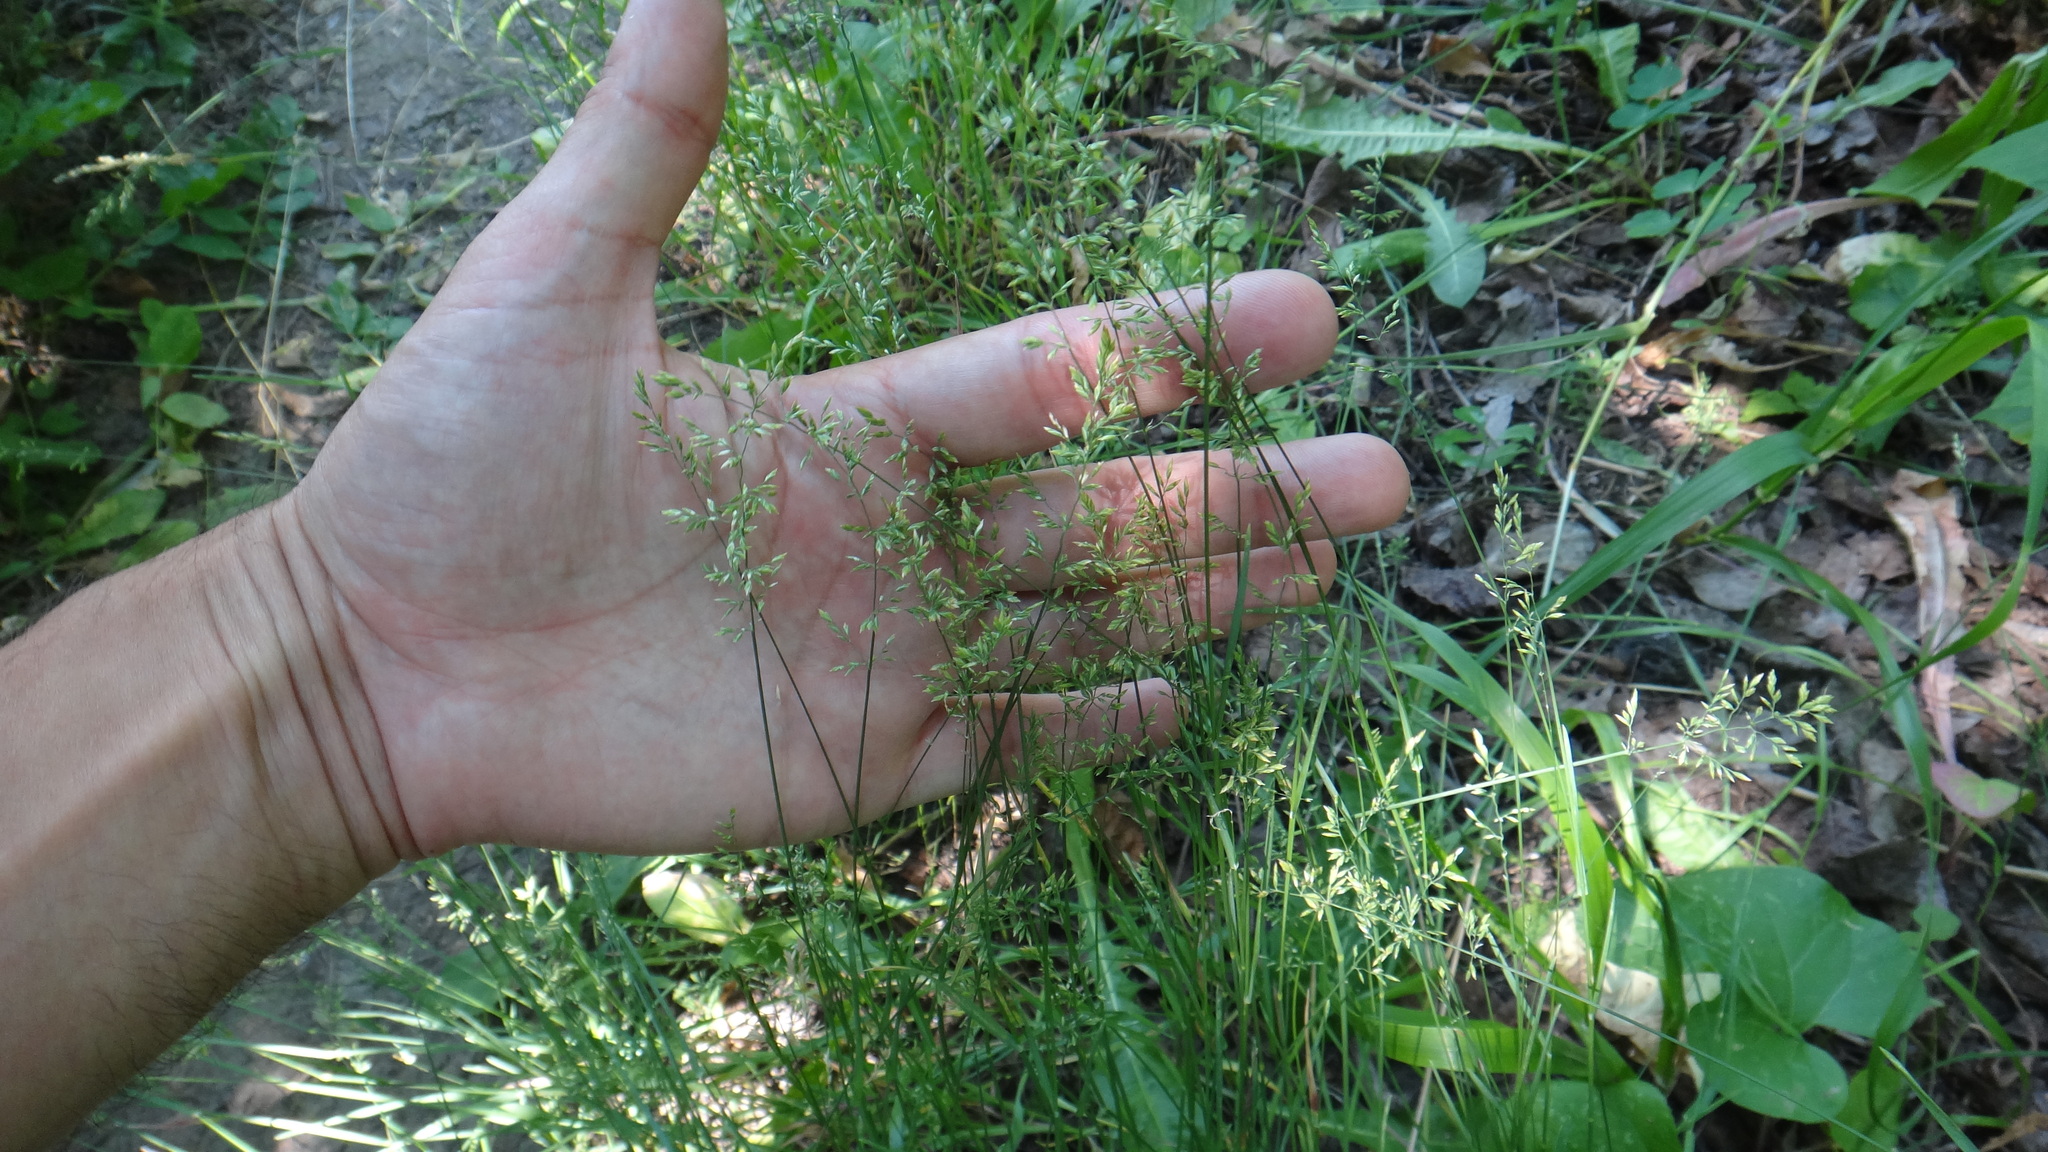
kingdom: Plantae
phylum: Tracheophyta
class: Liliopsida
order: Poales
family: Poaceae
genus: Poa
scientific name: Poa nemoralis
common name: Wood bluegrass
